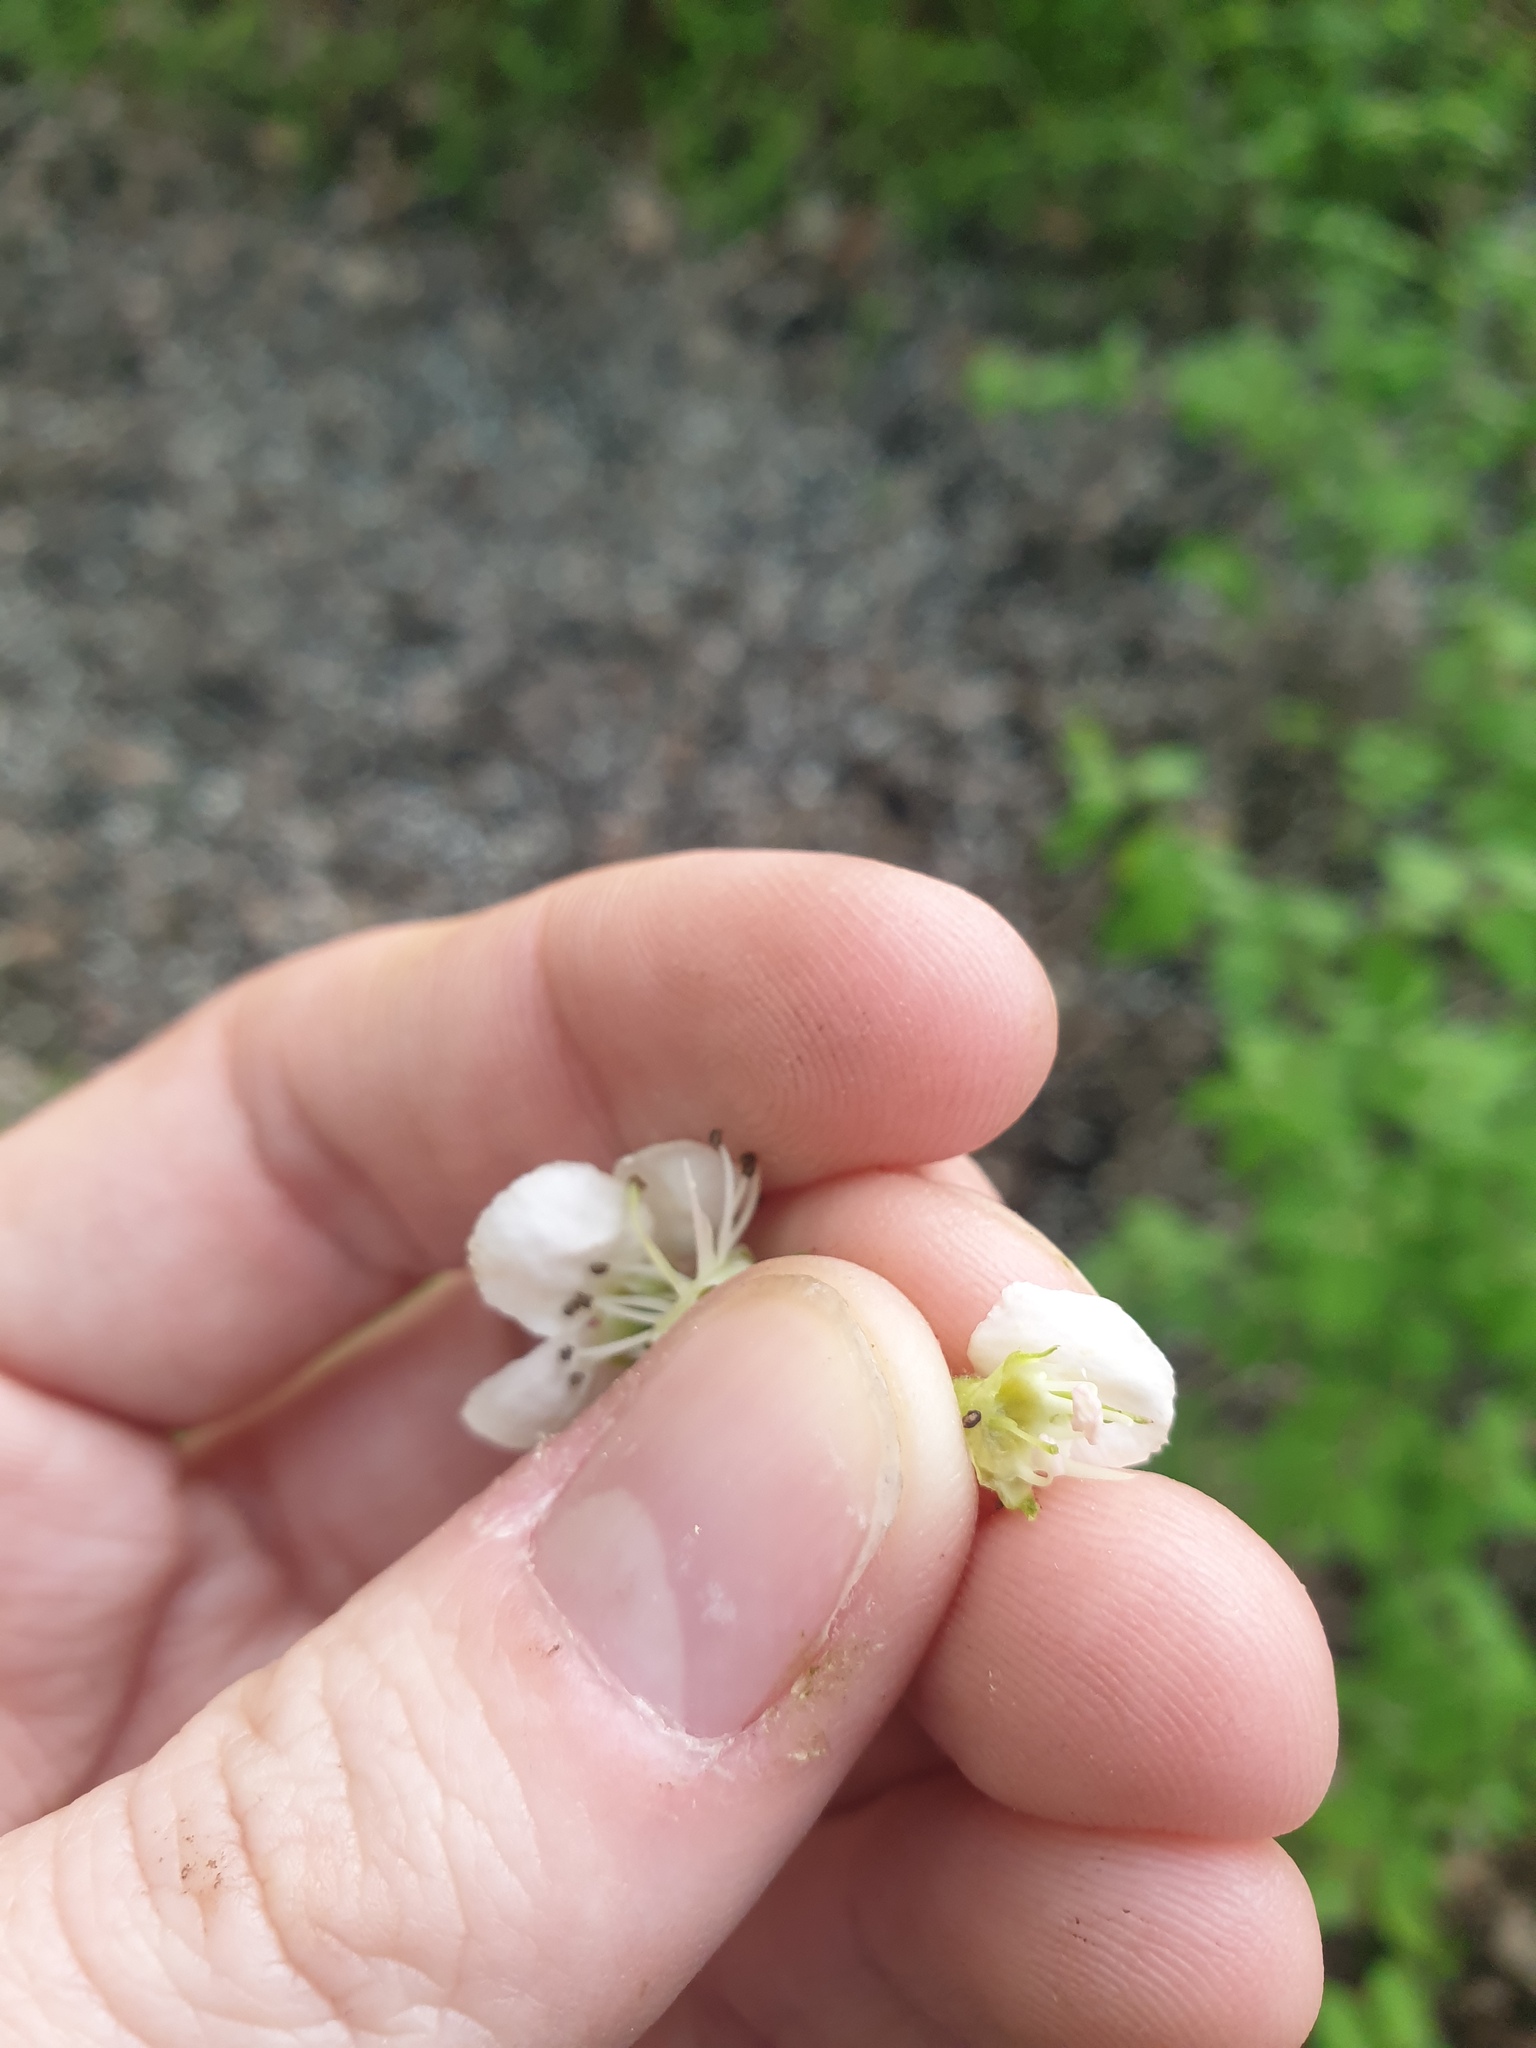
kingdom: Plantae
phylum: Tracheophyta
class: Magnoliopsida
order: Rosales
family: Rosaceae
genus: Crataegus
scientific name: Crataegus flabellata
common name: Bosc's hawthorn
